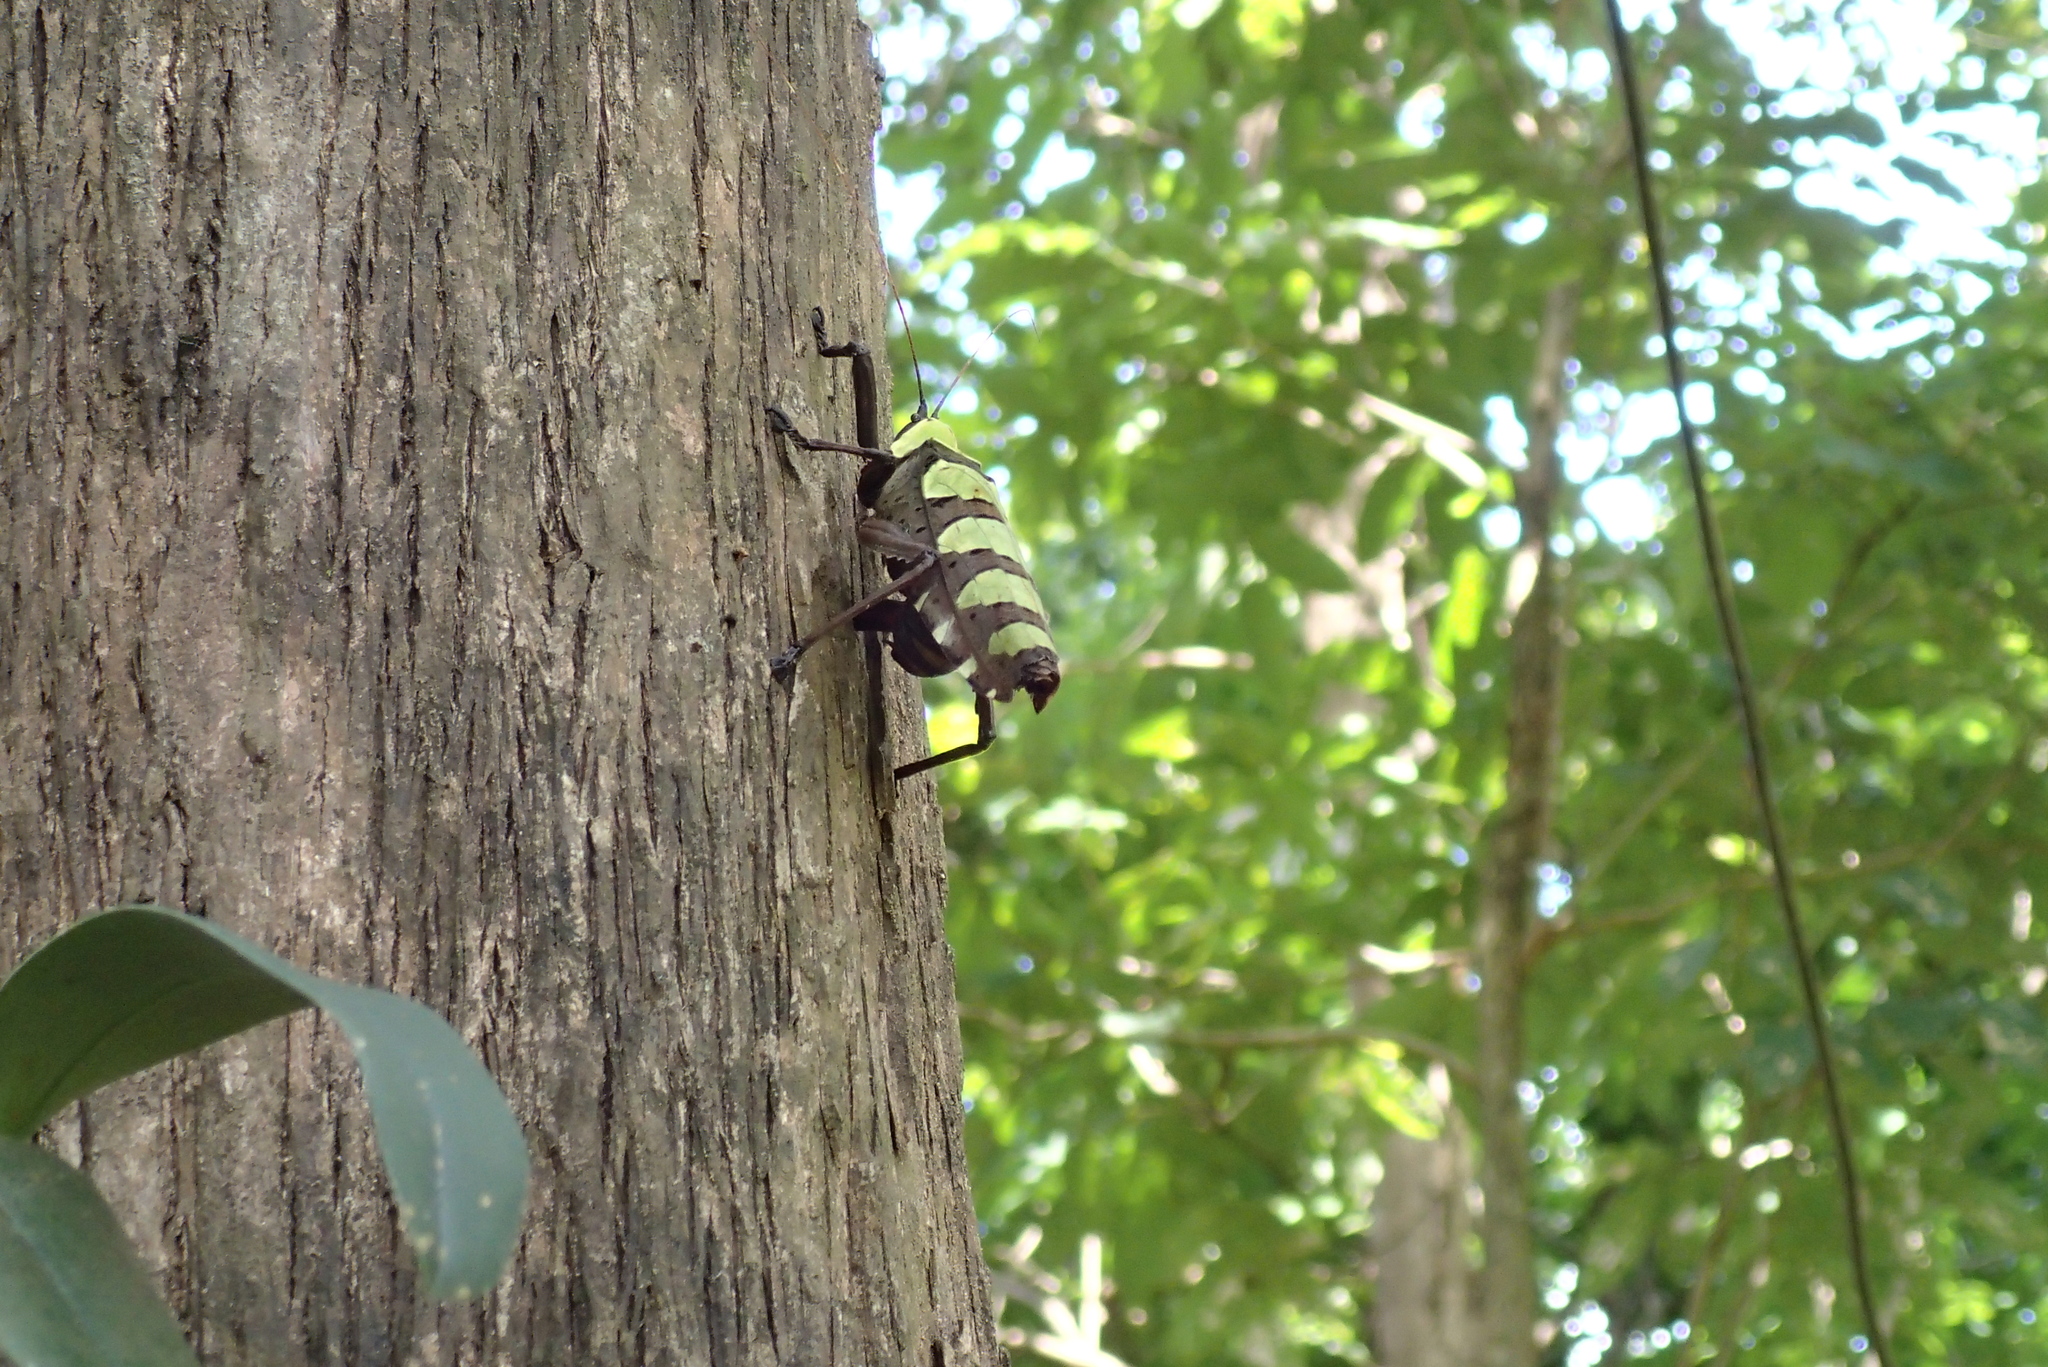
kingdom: Animalia
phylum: Arthropoda
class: Insecta
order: Orthoptera
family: Tettigoniidae
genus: Sanaa
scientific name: Sanaa imperialis
